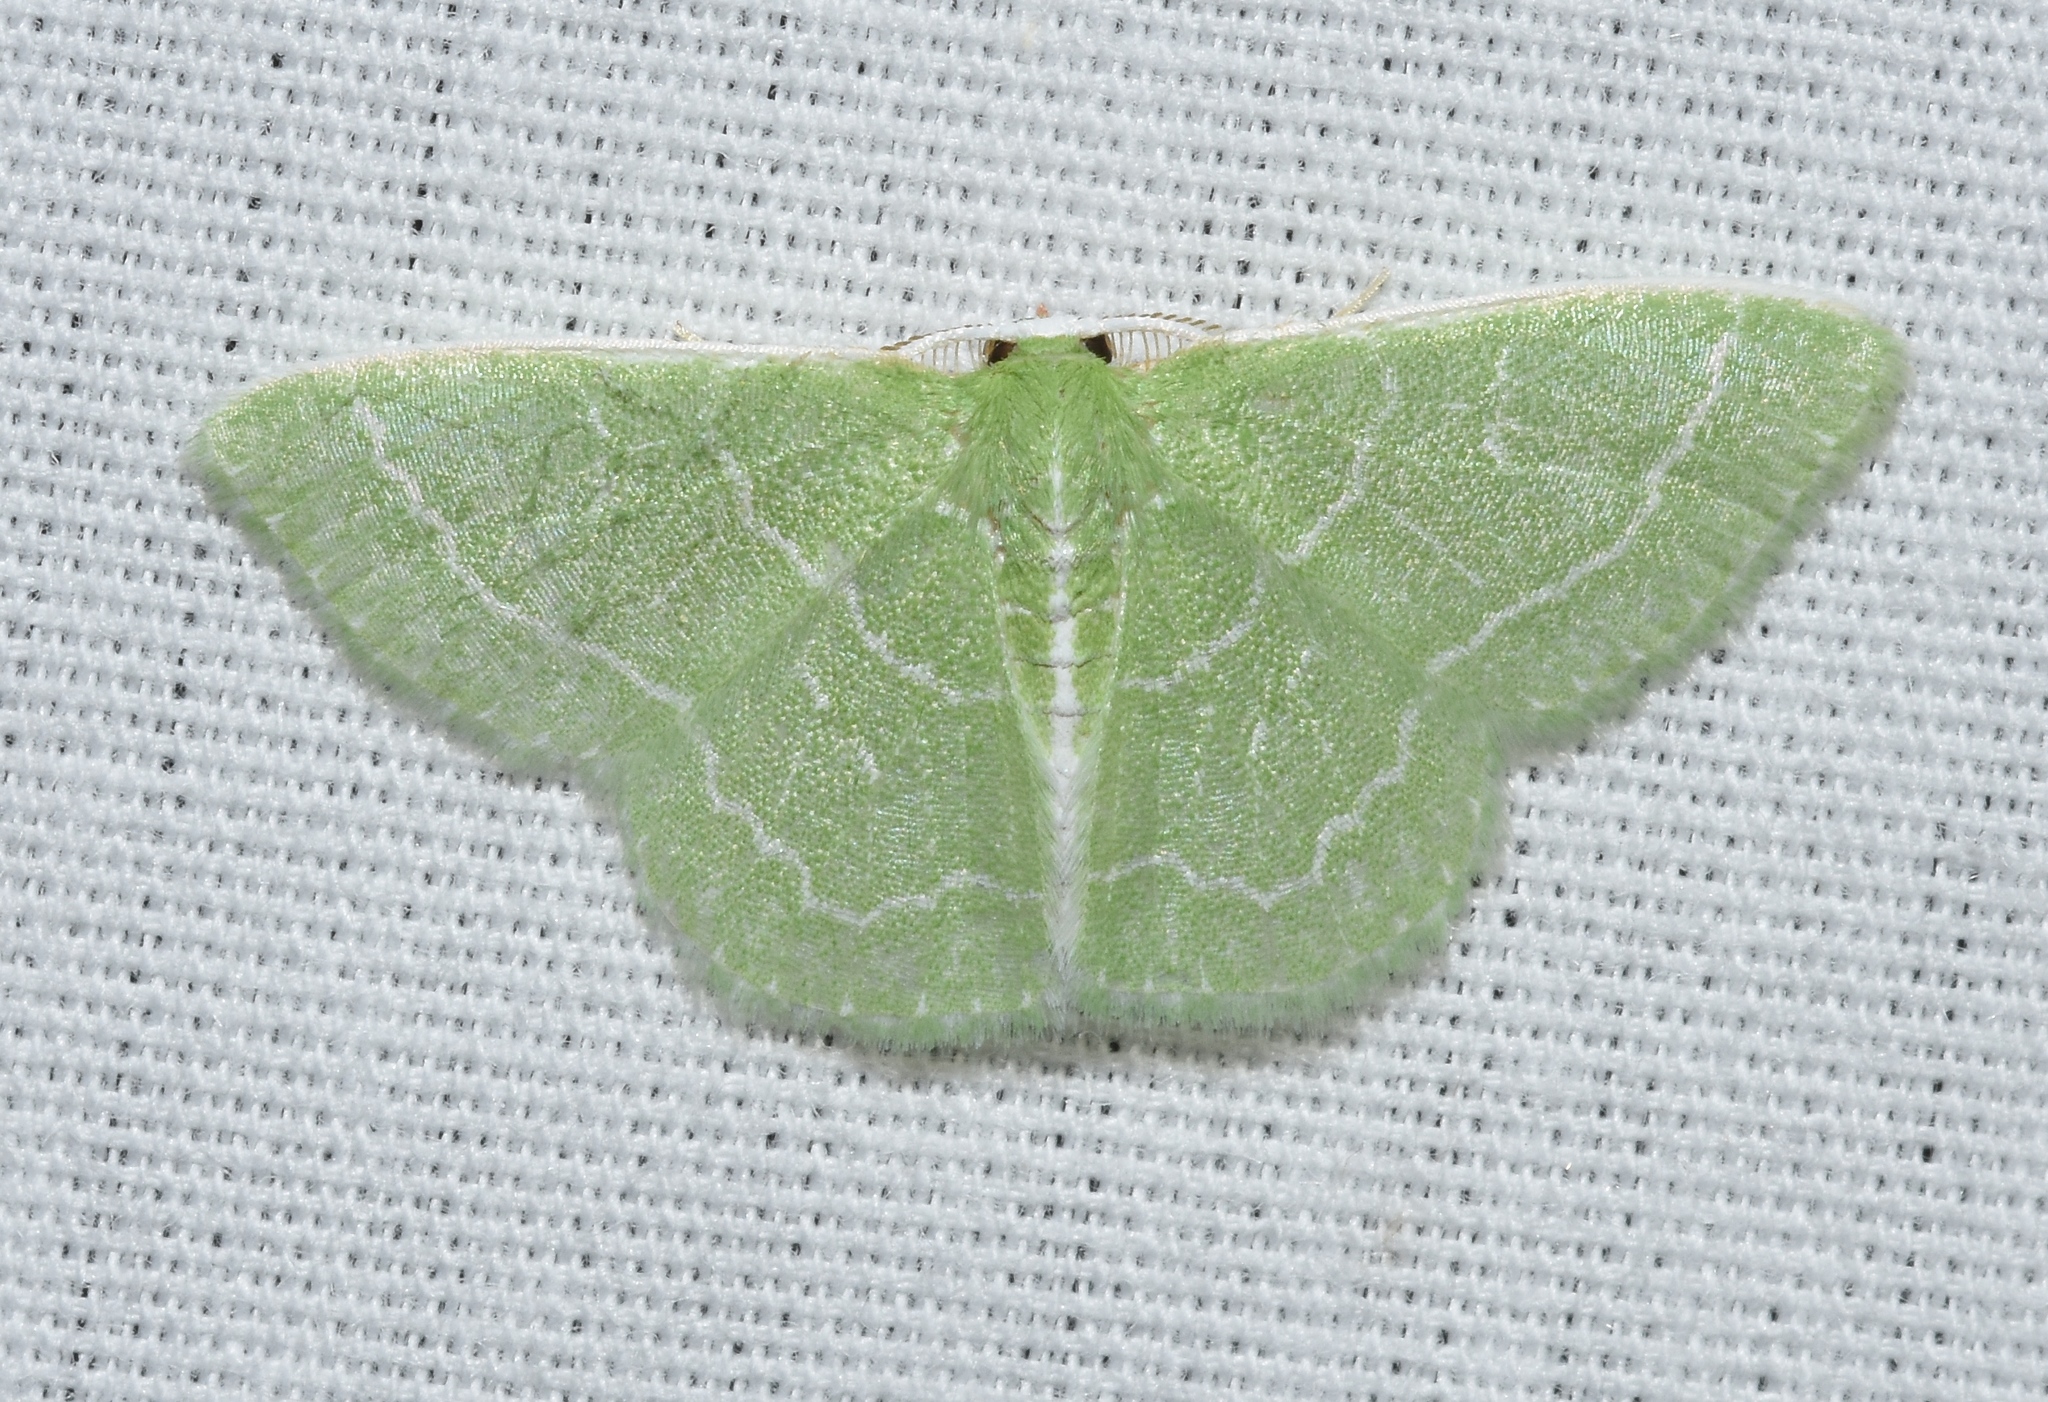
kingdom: Animalia
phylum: Arthropoda
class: Insecta
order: Lepidoptera
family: Geometridae
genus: Synchlora
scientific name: Synchlora aerata
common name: Wavy-lined emerald
